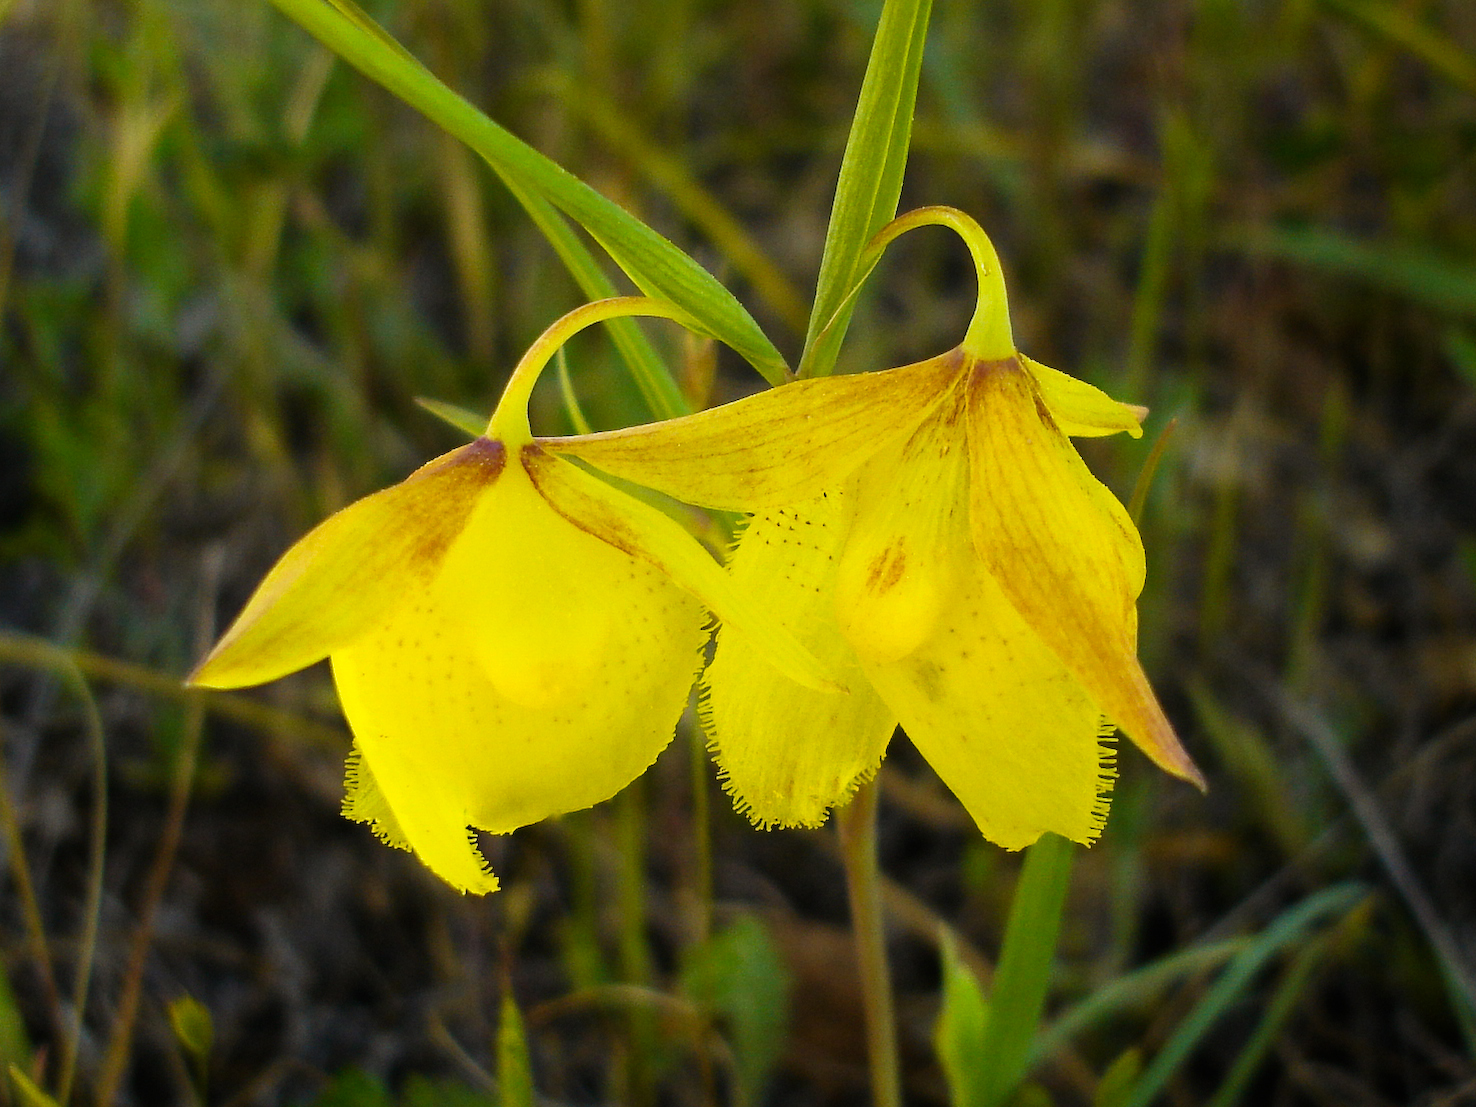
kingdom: Plantae
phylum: Tracheophyta
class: Liliopsida
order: Liliales
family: Liliaceae
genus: Calochortus
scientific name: Calochortus pulchellus
